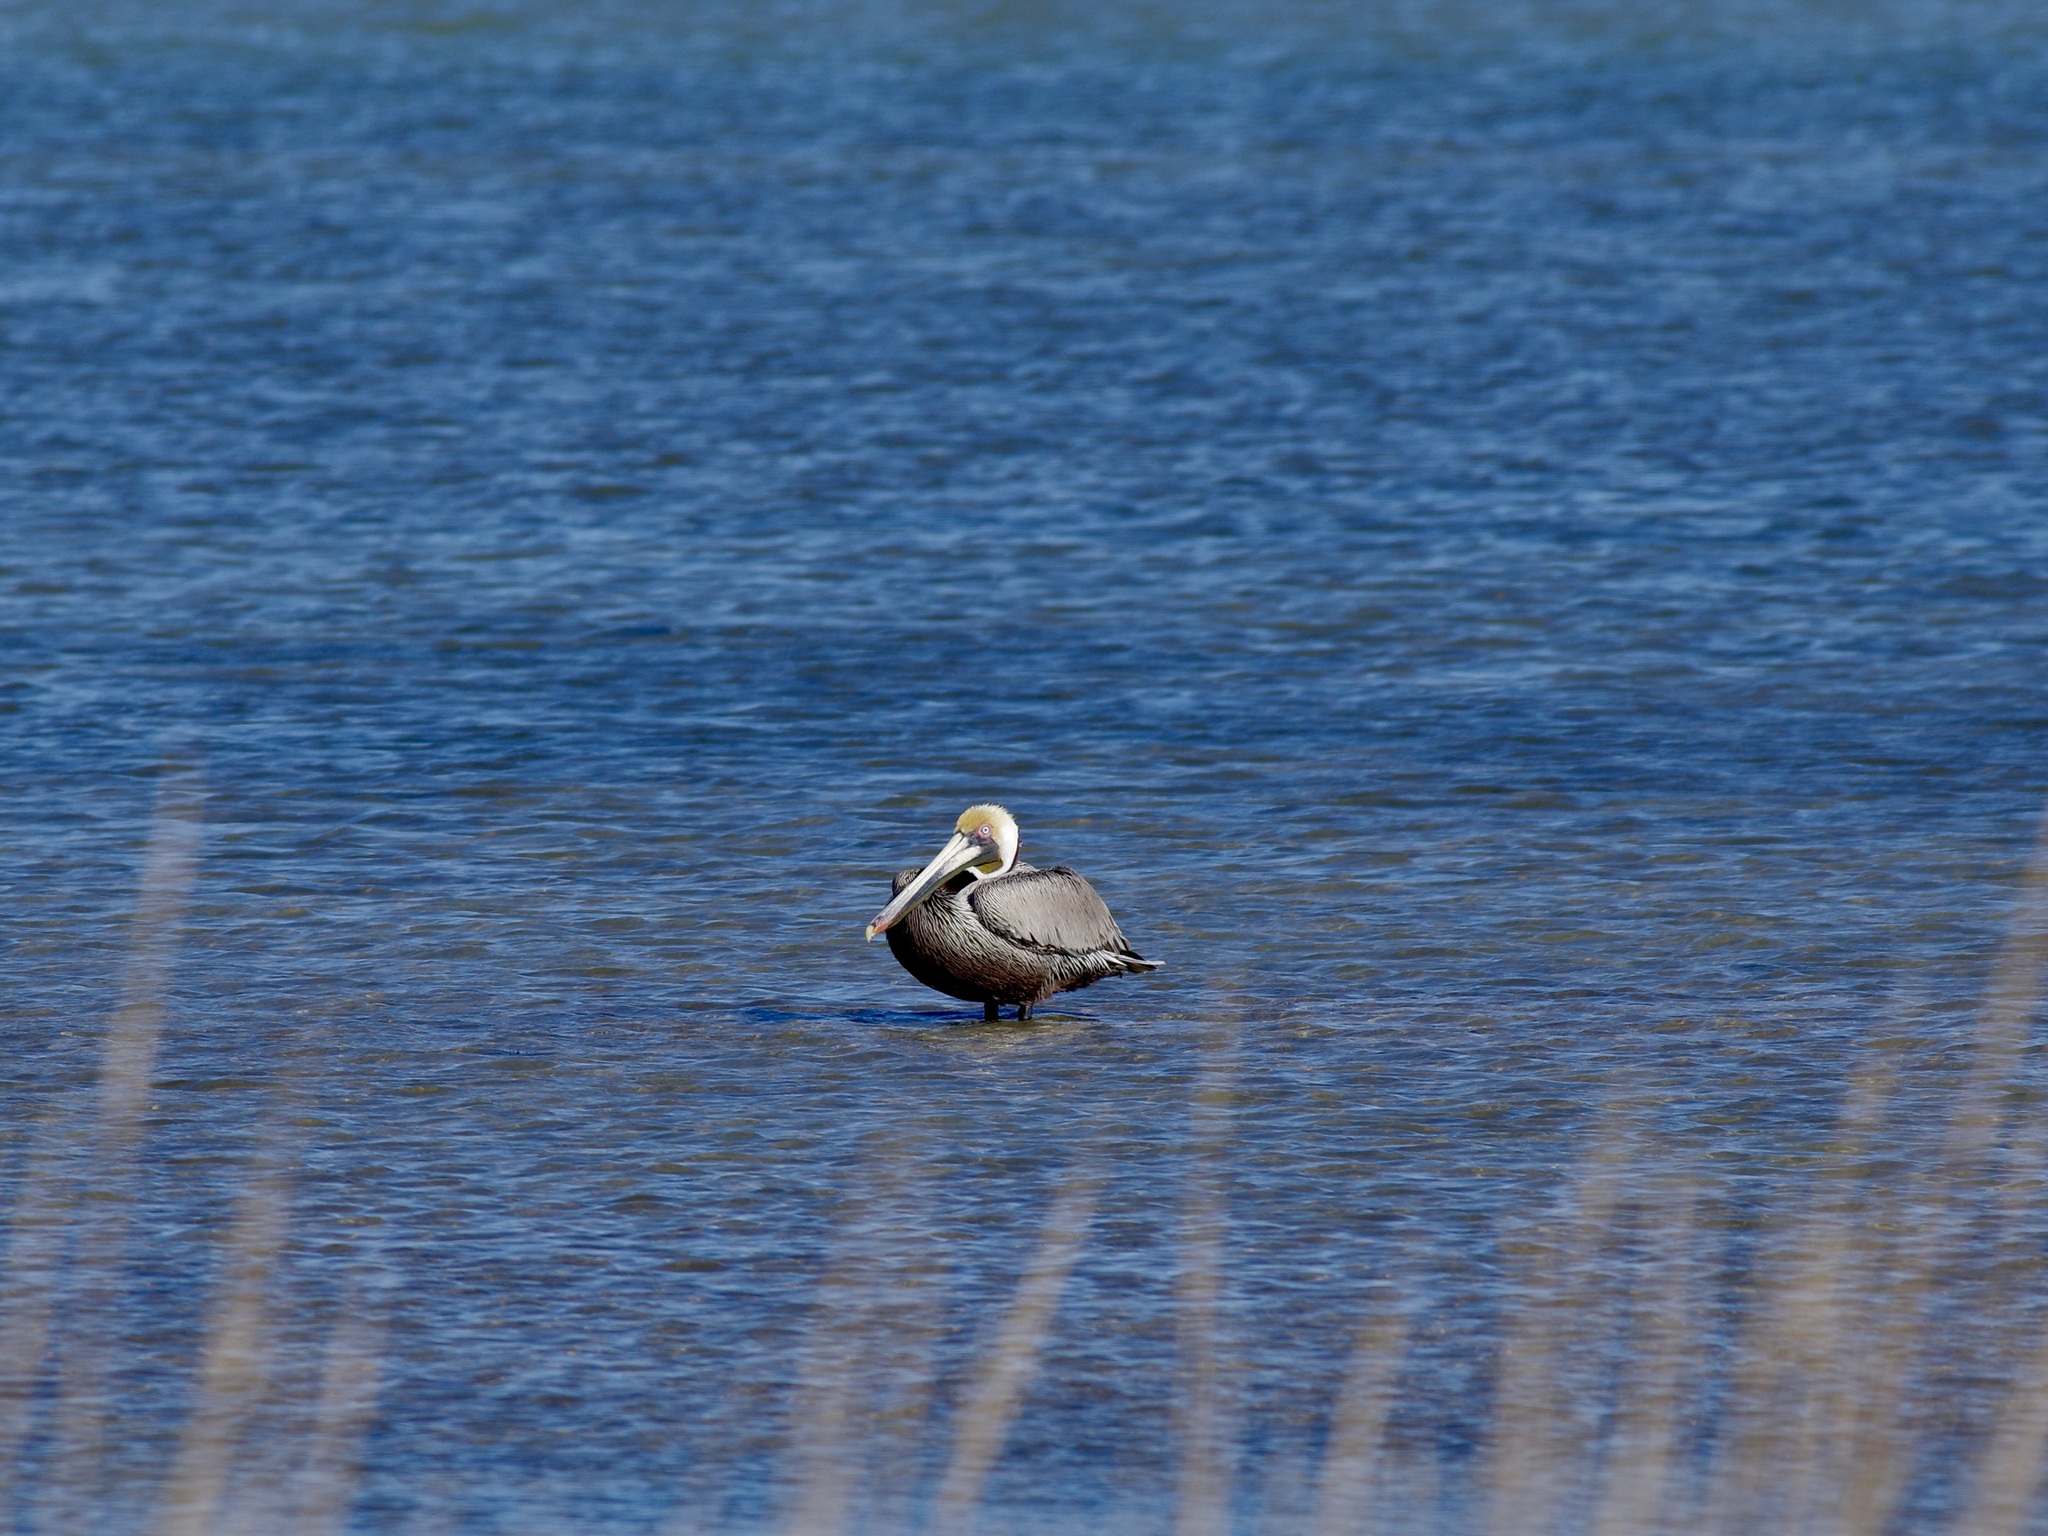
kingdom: Animalia
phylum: Chordata
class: Aves
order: Pelecaniformes
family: Pelecanidae
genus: Pelecanus
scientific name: Pelecanus occidentalis
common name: Brown pelican
